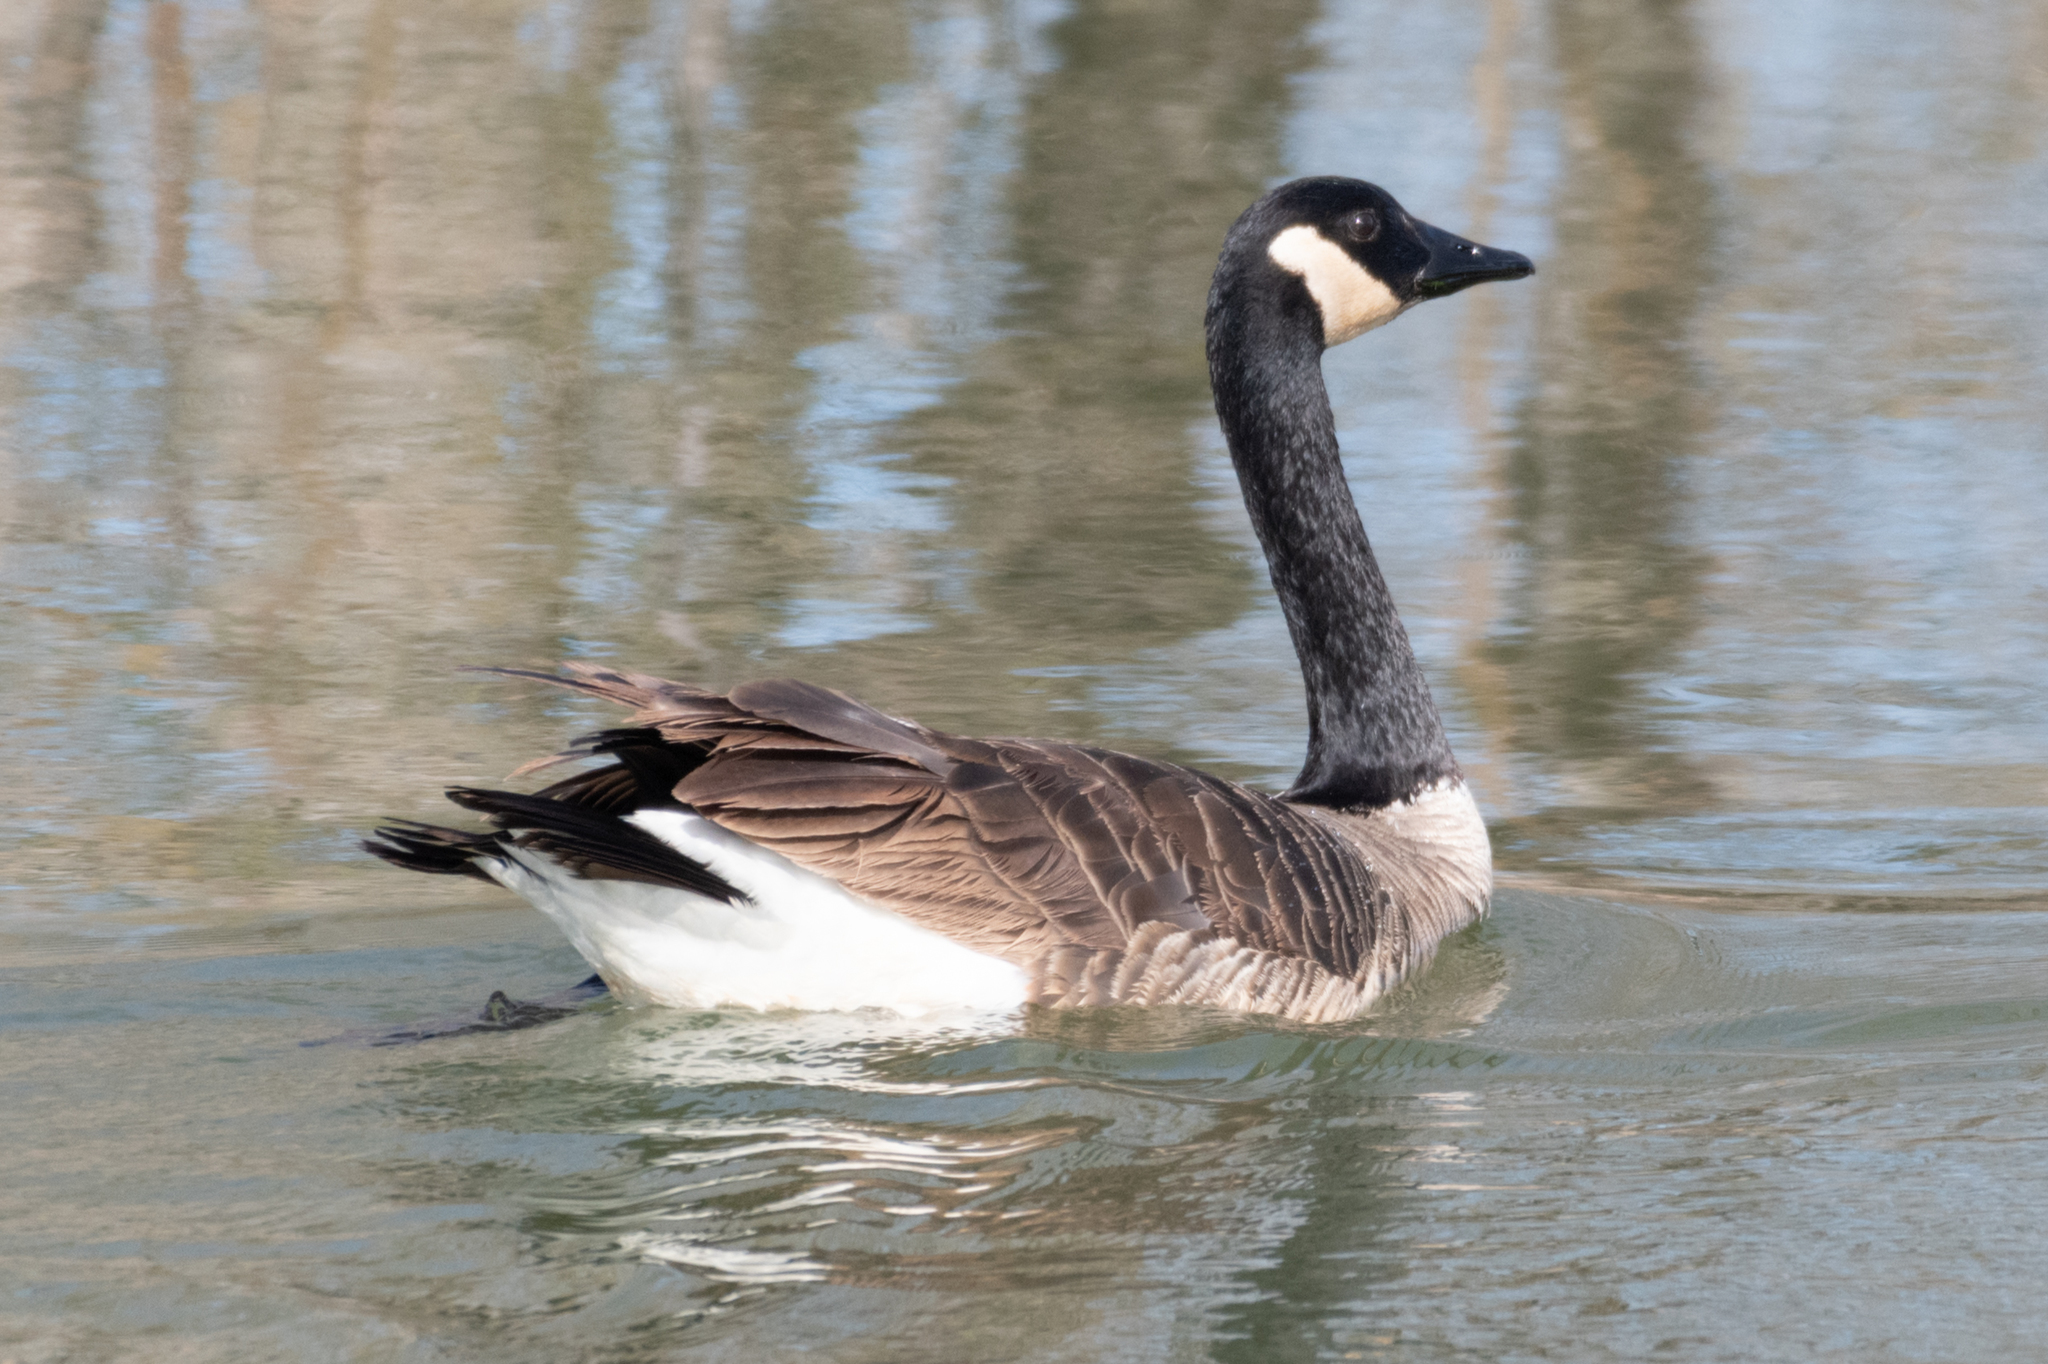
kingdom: Animalia
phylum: Chordata
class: Aves
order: Anseriformes
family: Anatidae
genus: Branta
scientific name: Branta canadensis
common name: Canada goose
